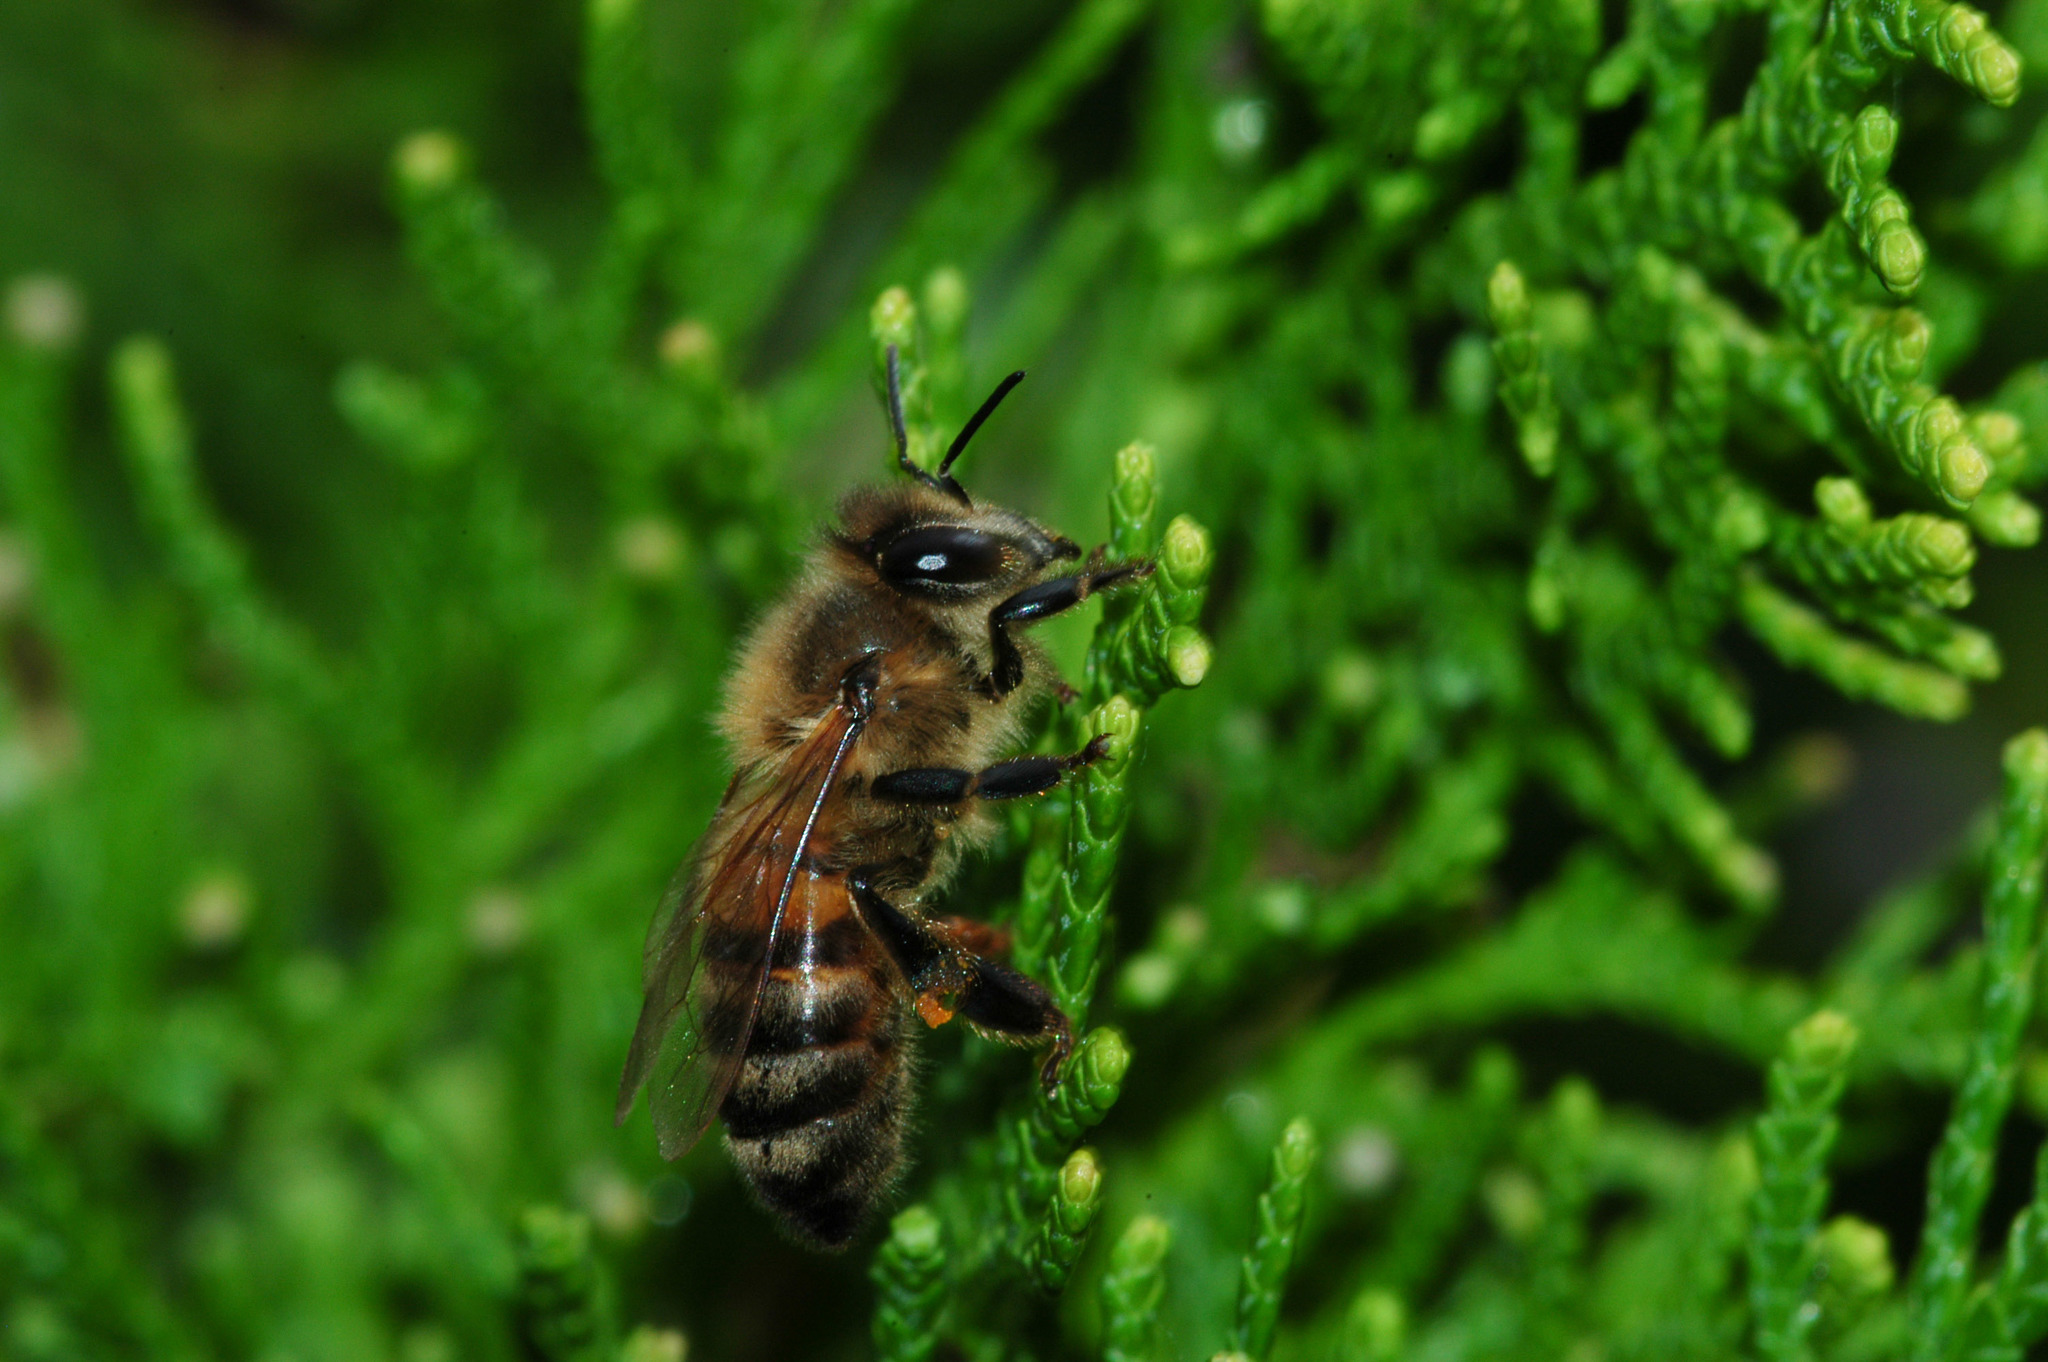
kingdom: Animalia
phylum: Arthropoda
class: Insecta
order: Hymenoptera
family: Apidae
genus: Apis
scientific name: Apis mellifera
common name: Honey bee
